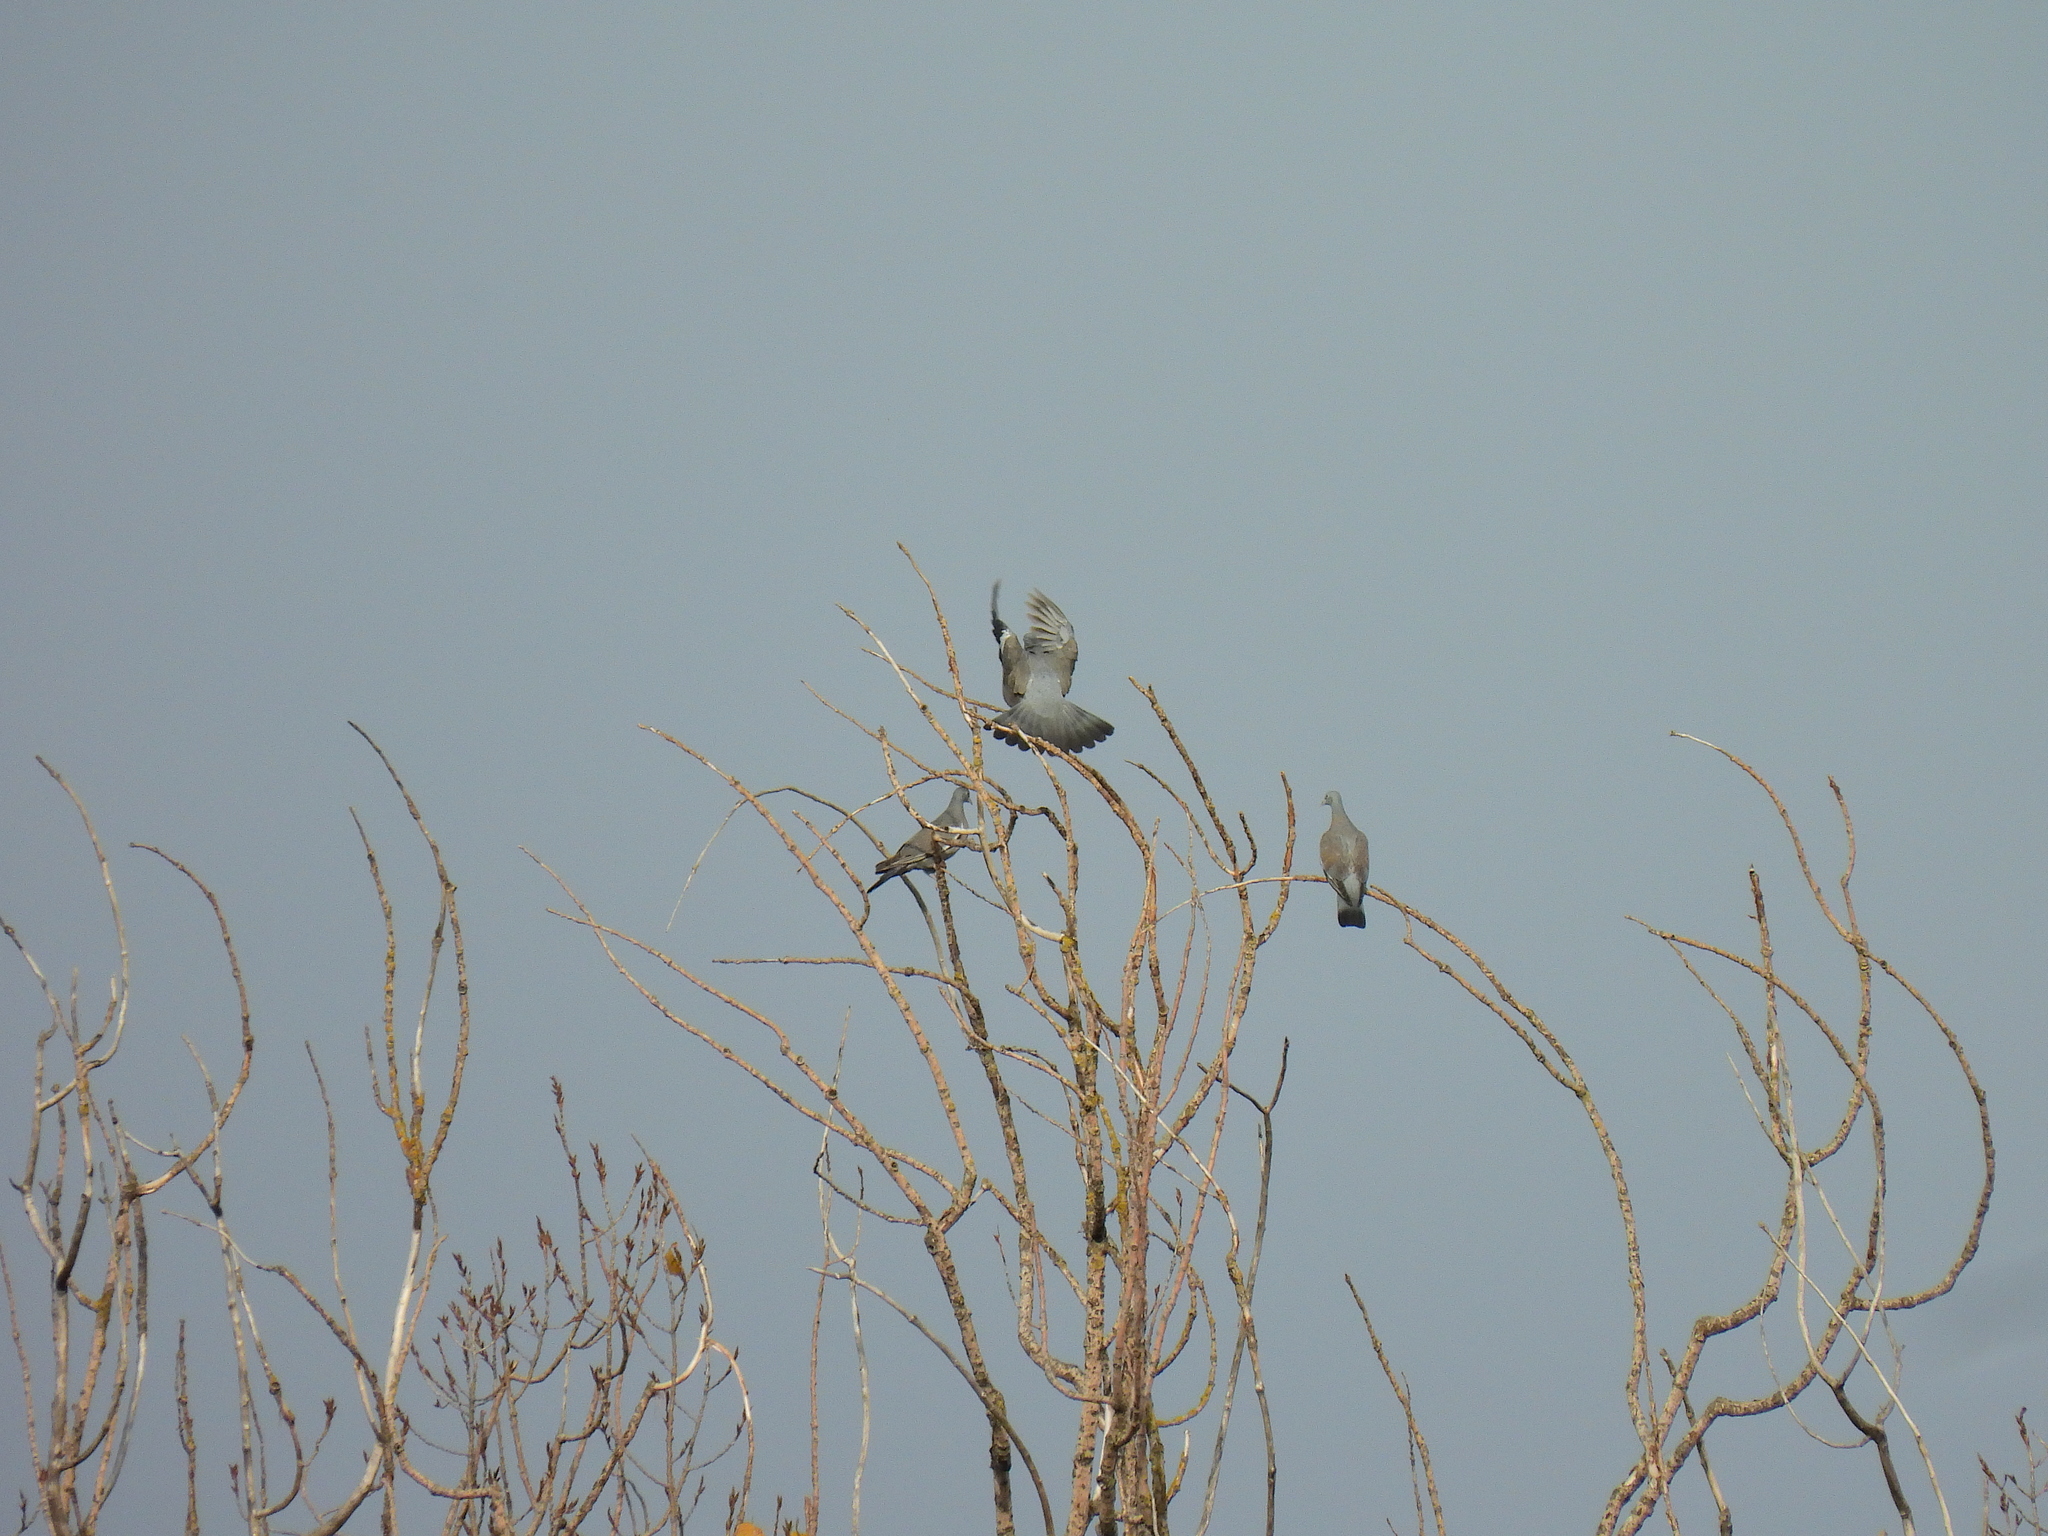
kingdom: Animalia
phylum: Chordata
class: Aves
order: Columbiformes
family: Columbidae
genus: Columba
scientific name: Columba palumbus
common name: Common wood pigeon
